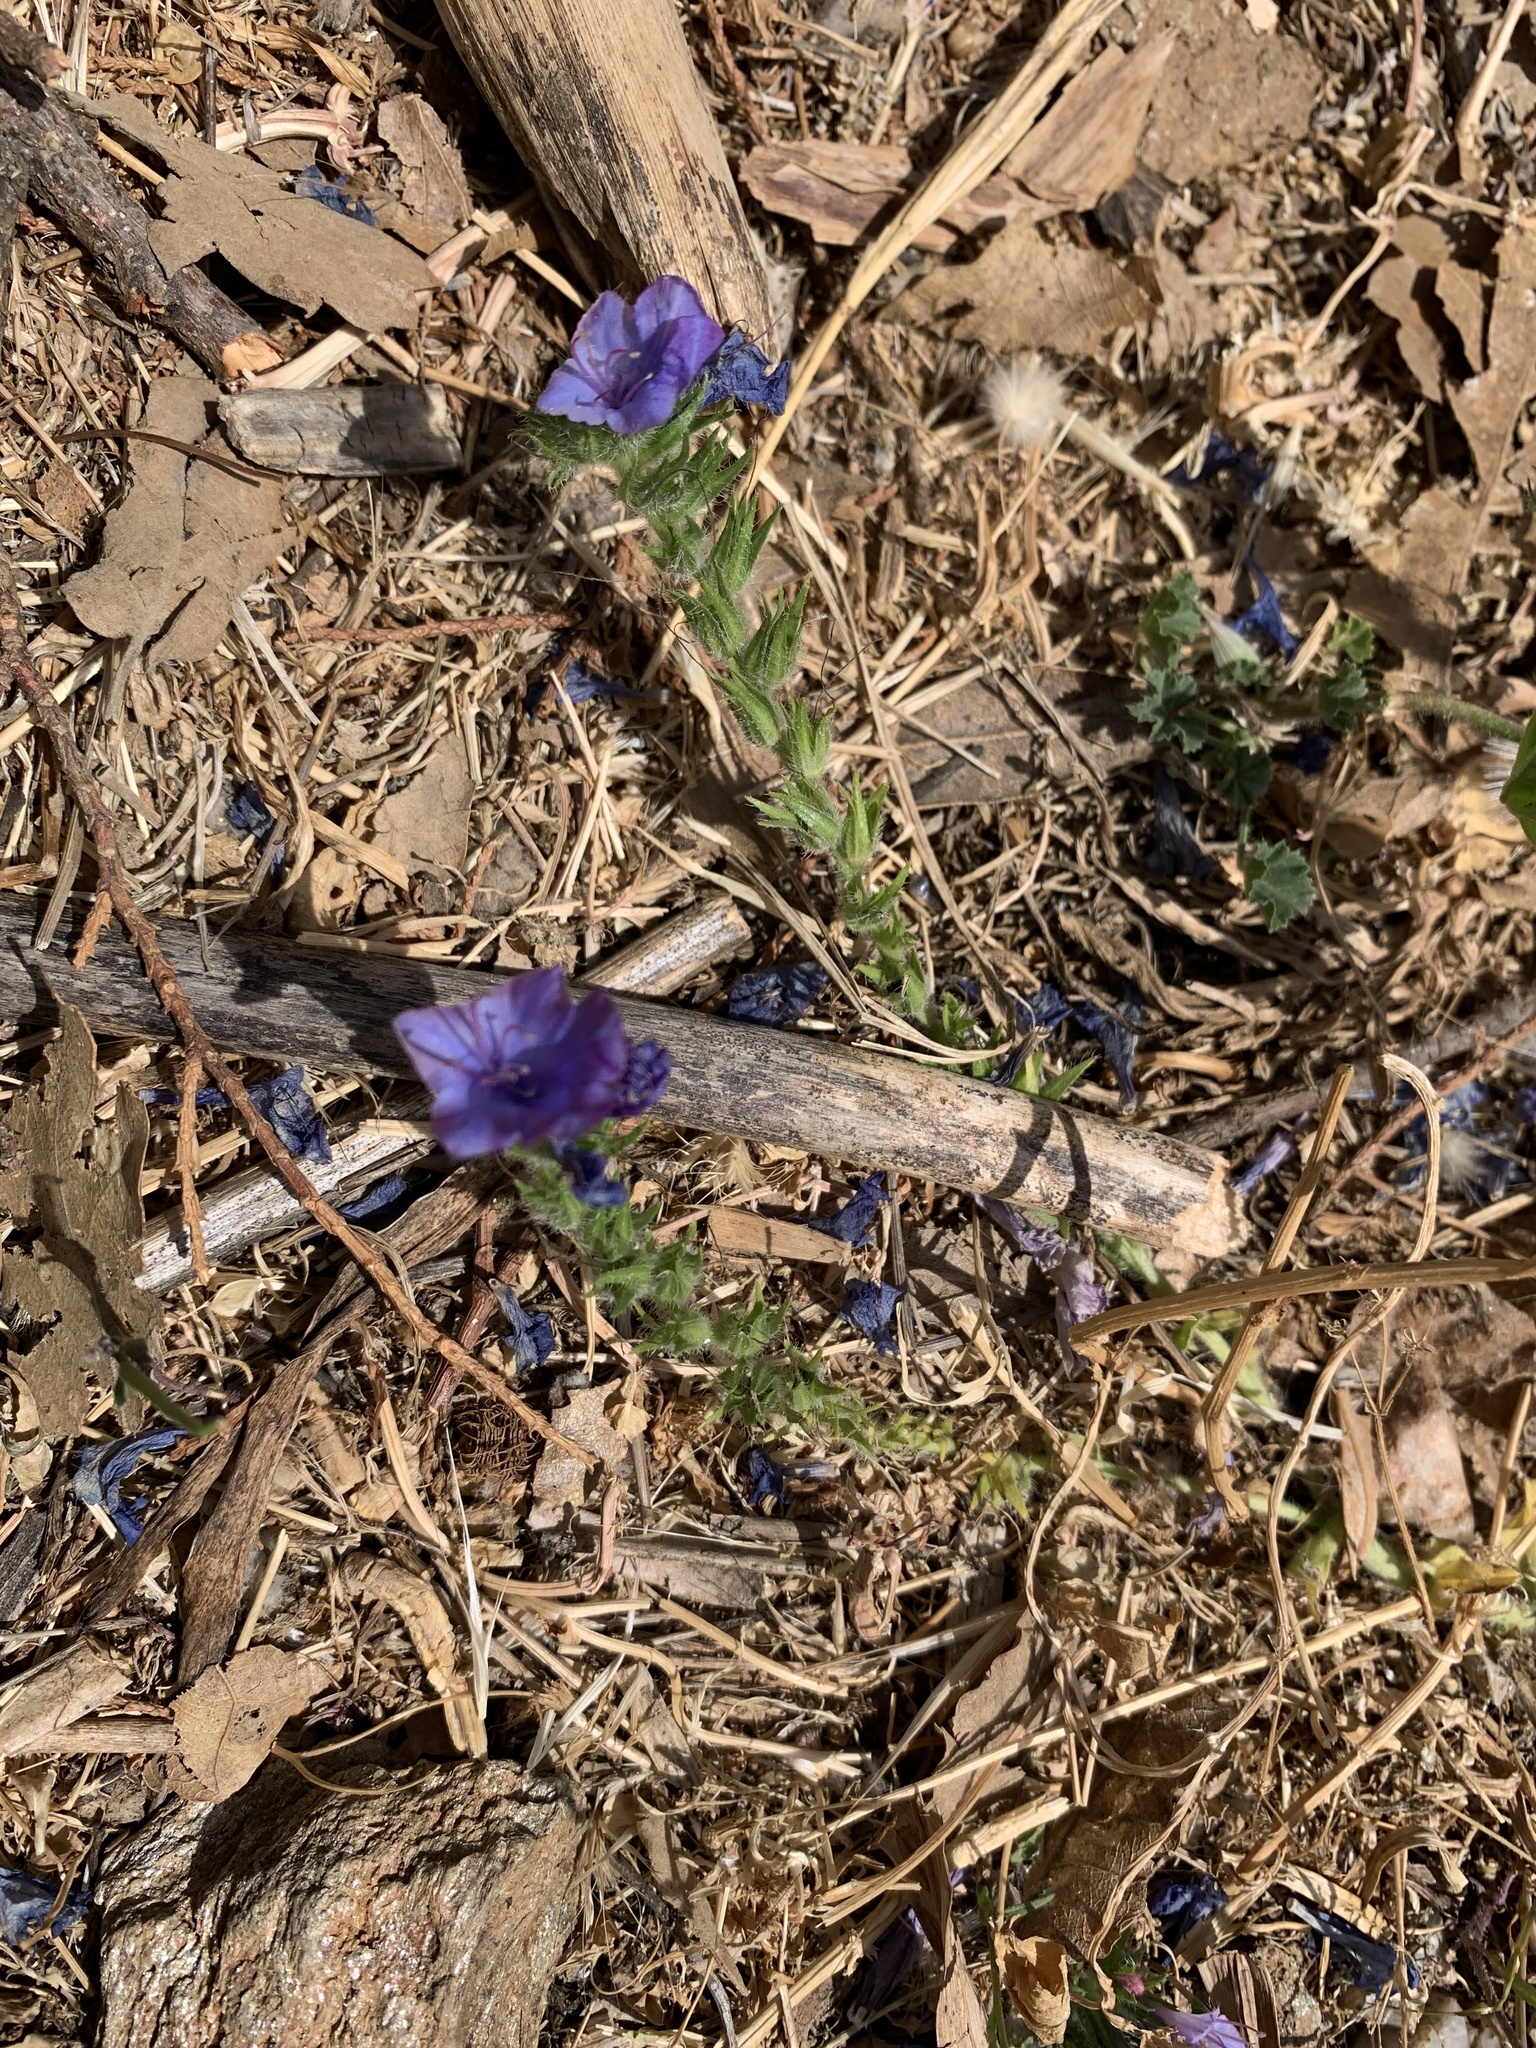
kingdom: Plantae
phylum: Tracheophyta
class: Magnoliopsida
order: Boraginales
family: Boraginaceae
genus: Echium
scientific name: Echium plantagineum
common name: Purple viper's-bugloss
